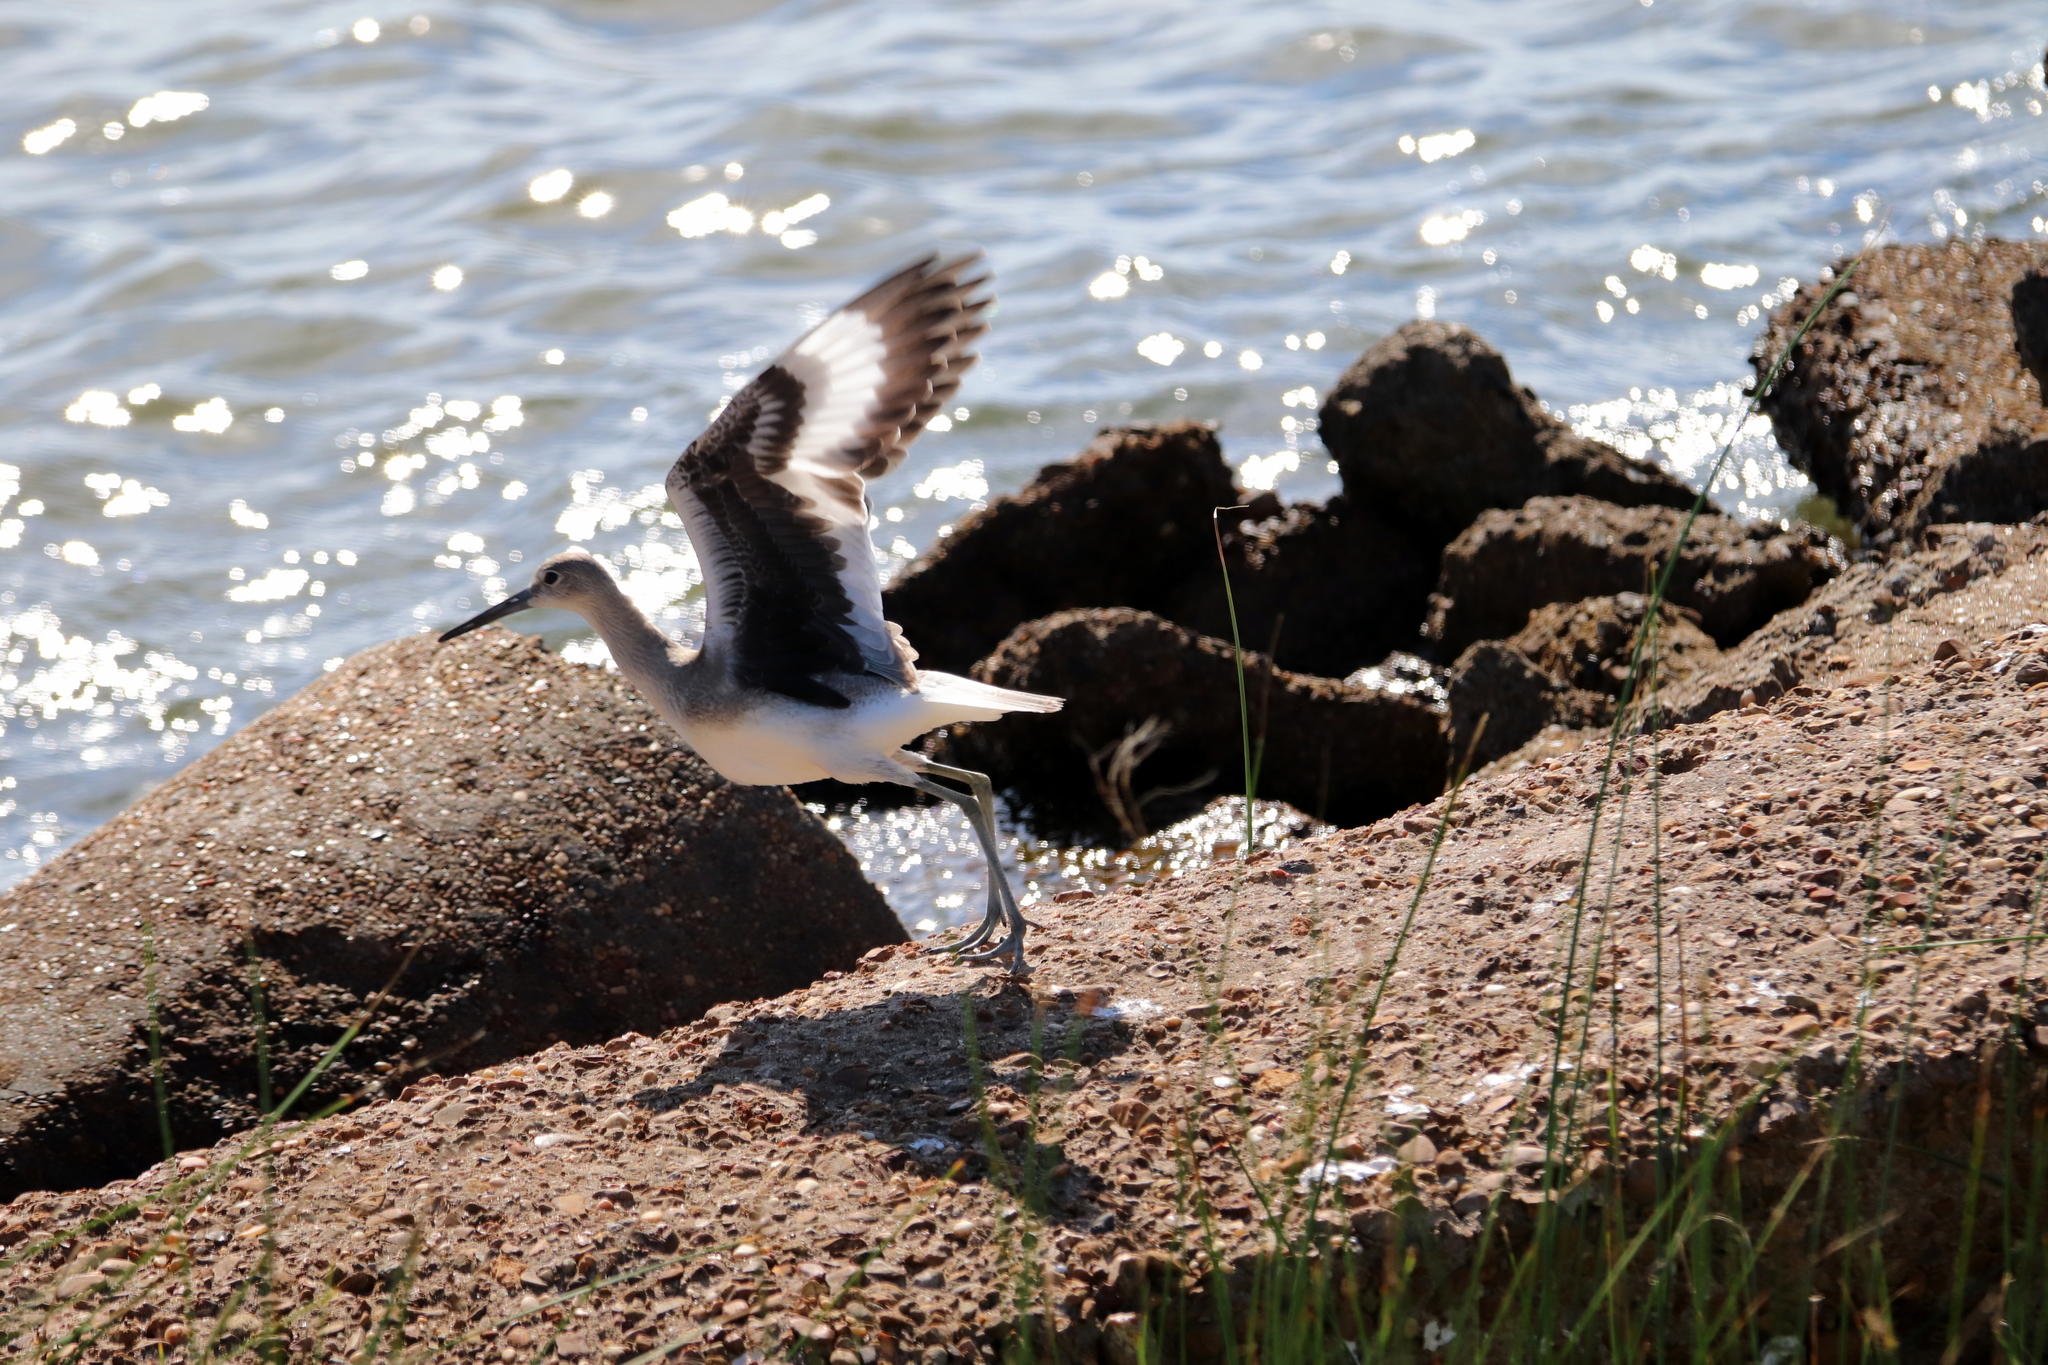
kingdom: Animalia
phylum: Chordata
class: Aves
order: Charadriiformes
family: Scolopacidae
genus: Tringa
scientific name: Tringa semipalmata
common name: Willet
